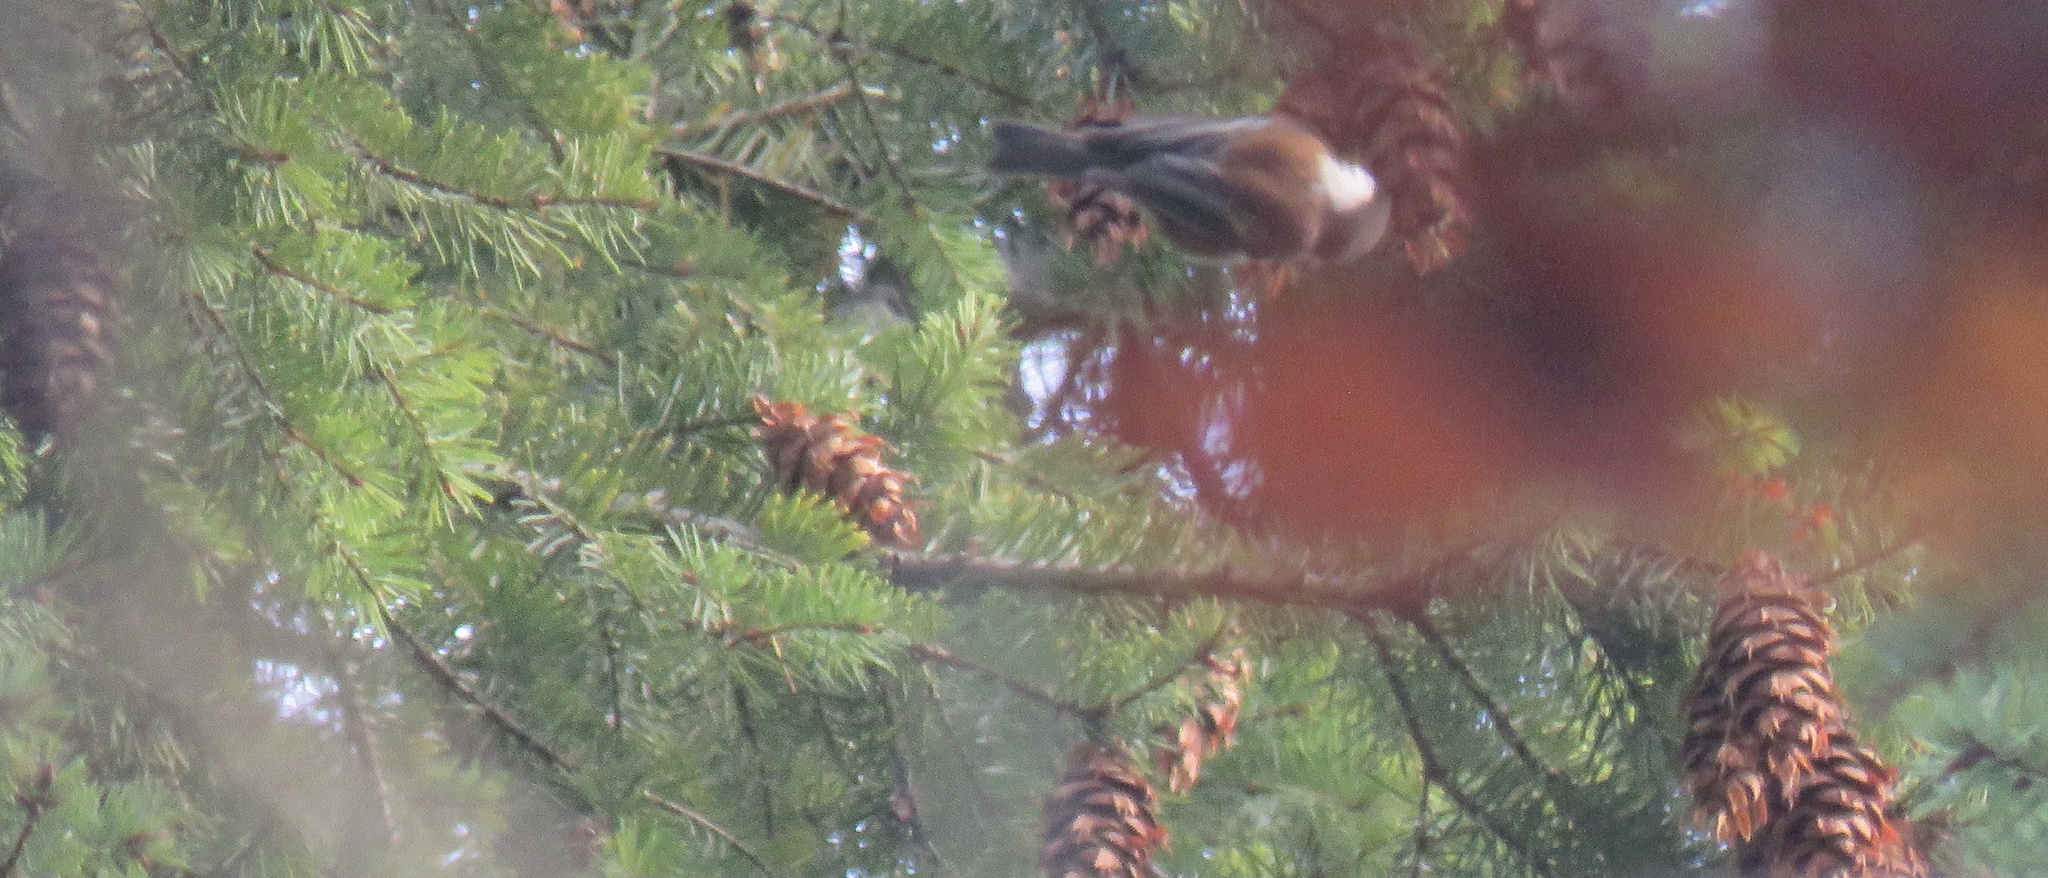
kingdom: Animalia
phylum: Chordata
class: Aves
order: Passeriformes
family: Paridae
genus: Poecile
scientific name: Poecile rufescens
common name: Chestnut-backed chickadee
